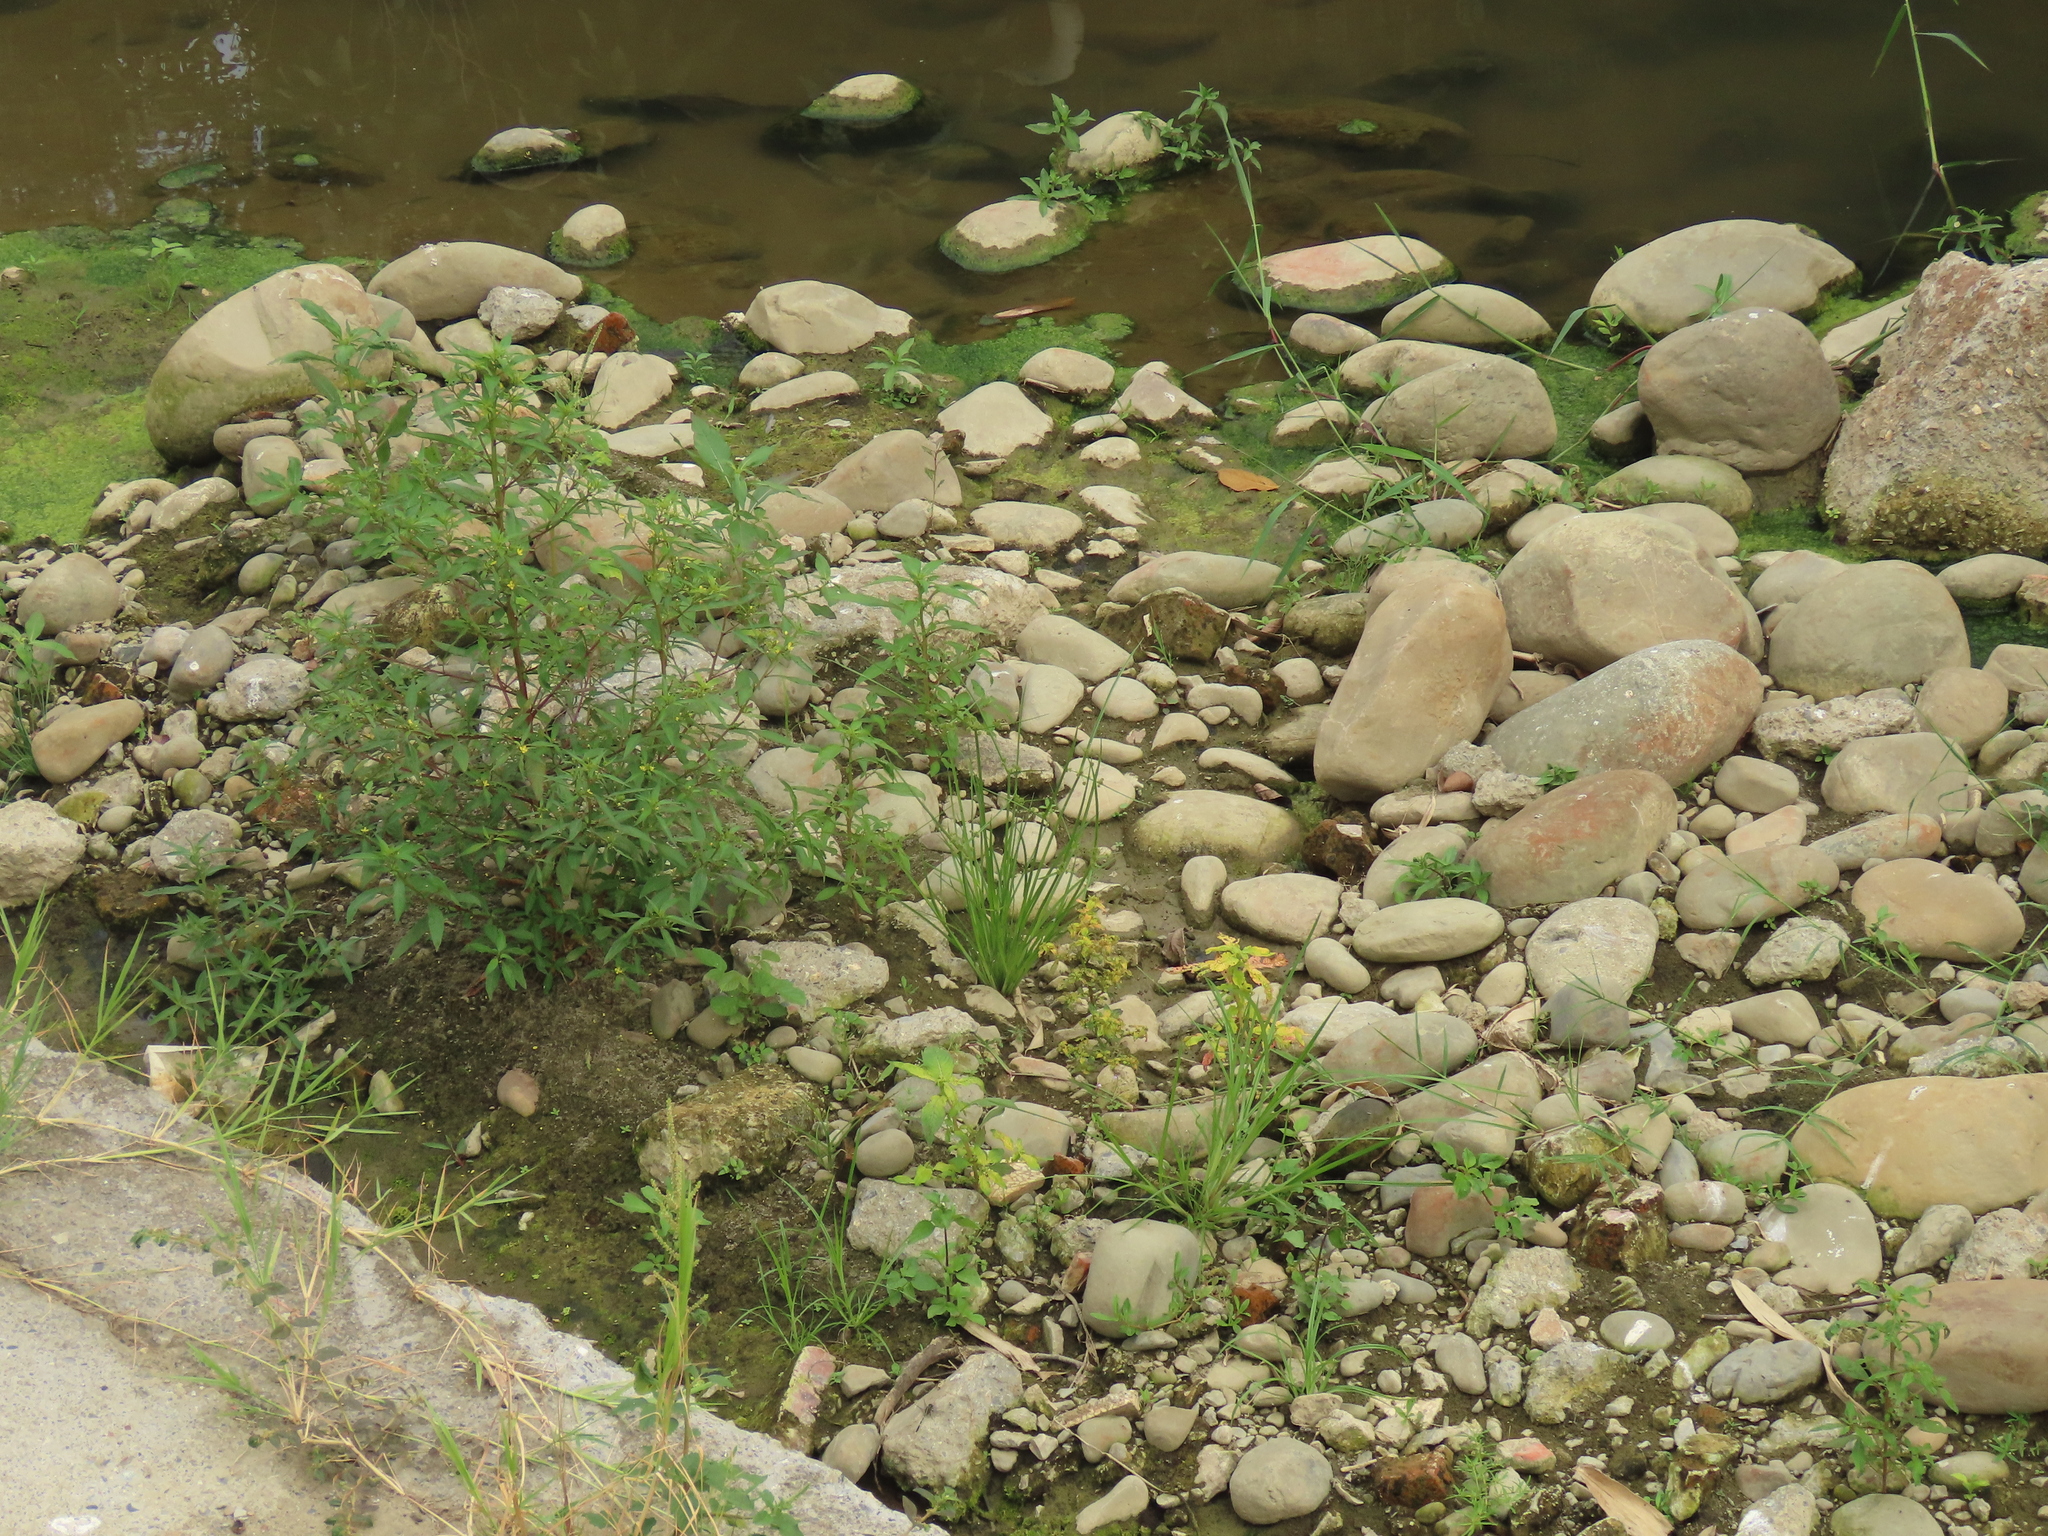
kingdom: Plantae
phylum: Tracheophyta
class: Liliopsida
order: Poales
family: Cyperaceae
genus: Cyperus
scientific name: Cyperus difformis
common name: Variable flatsedge
